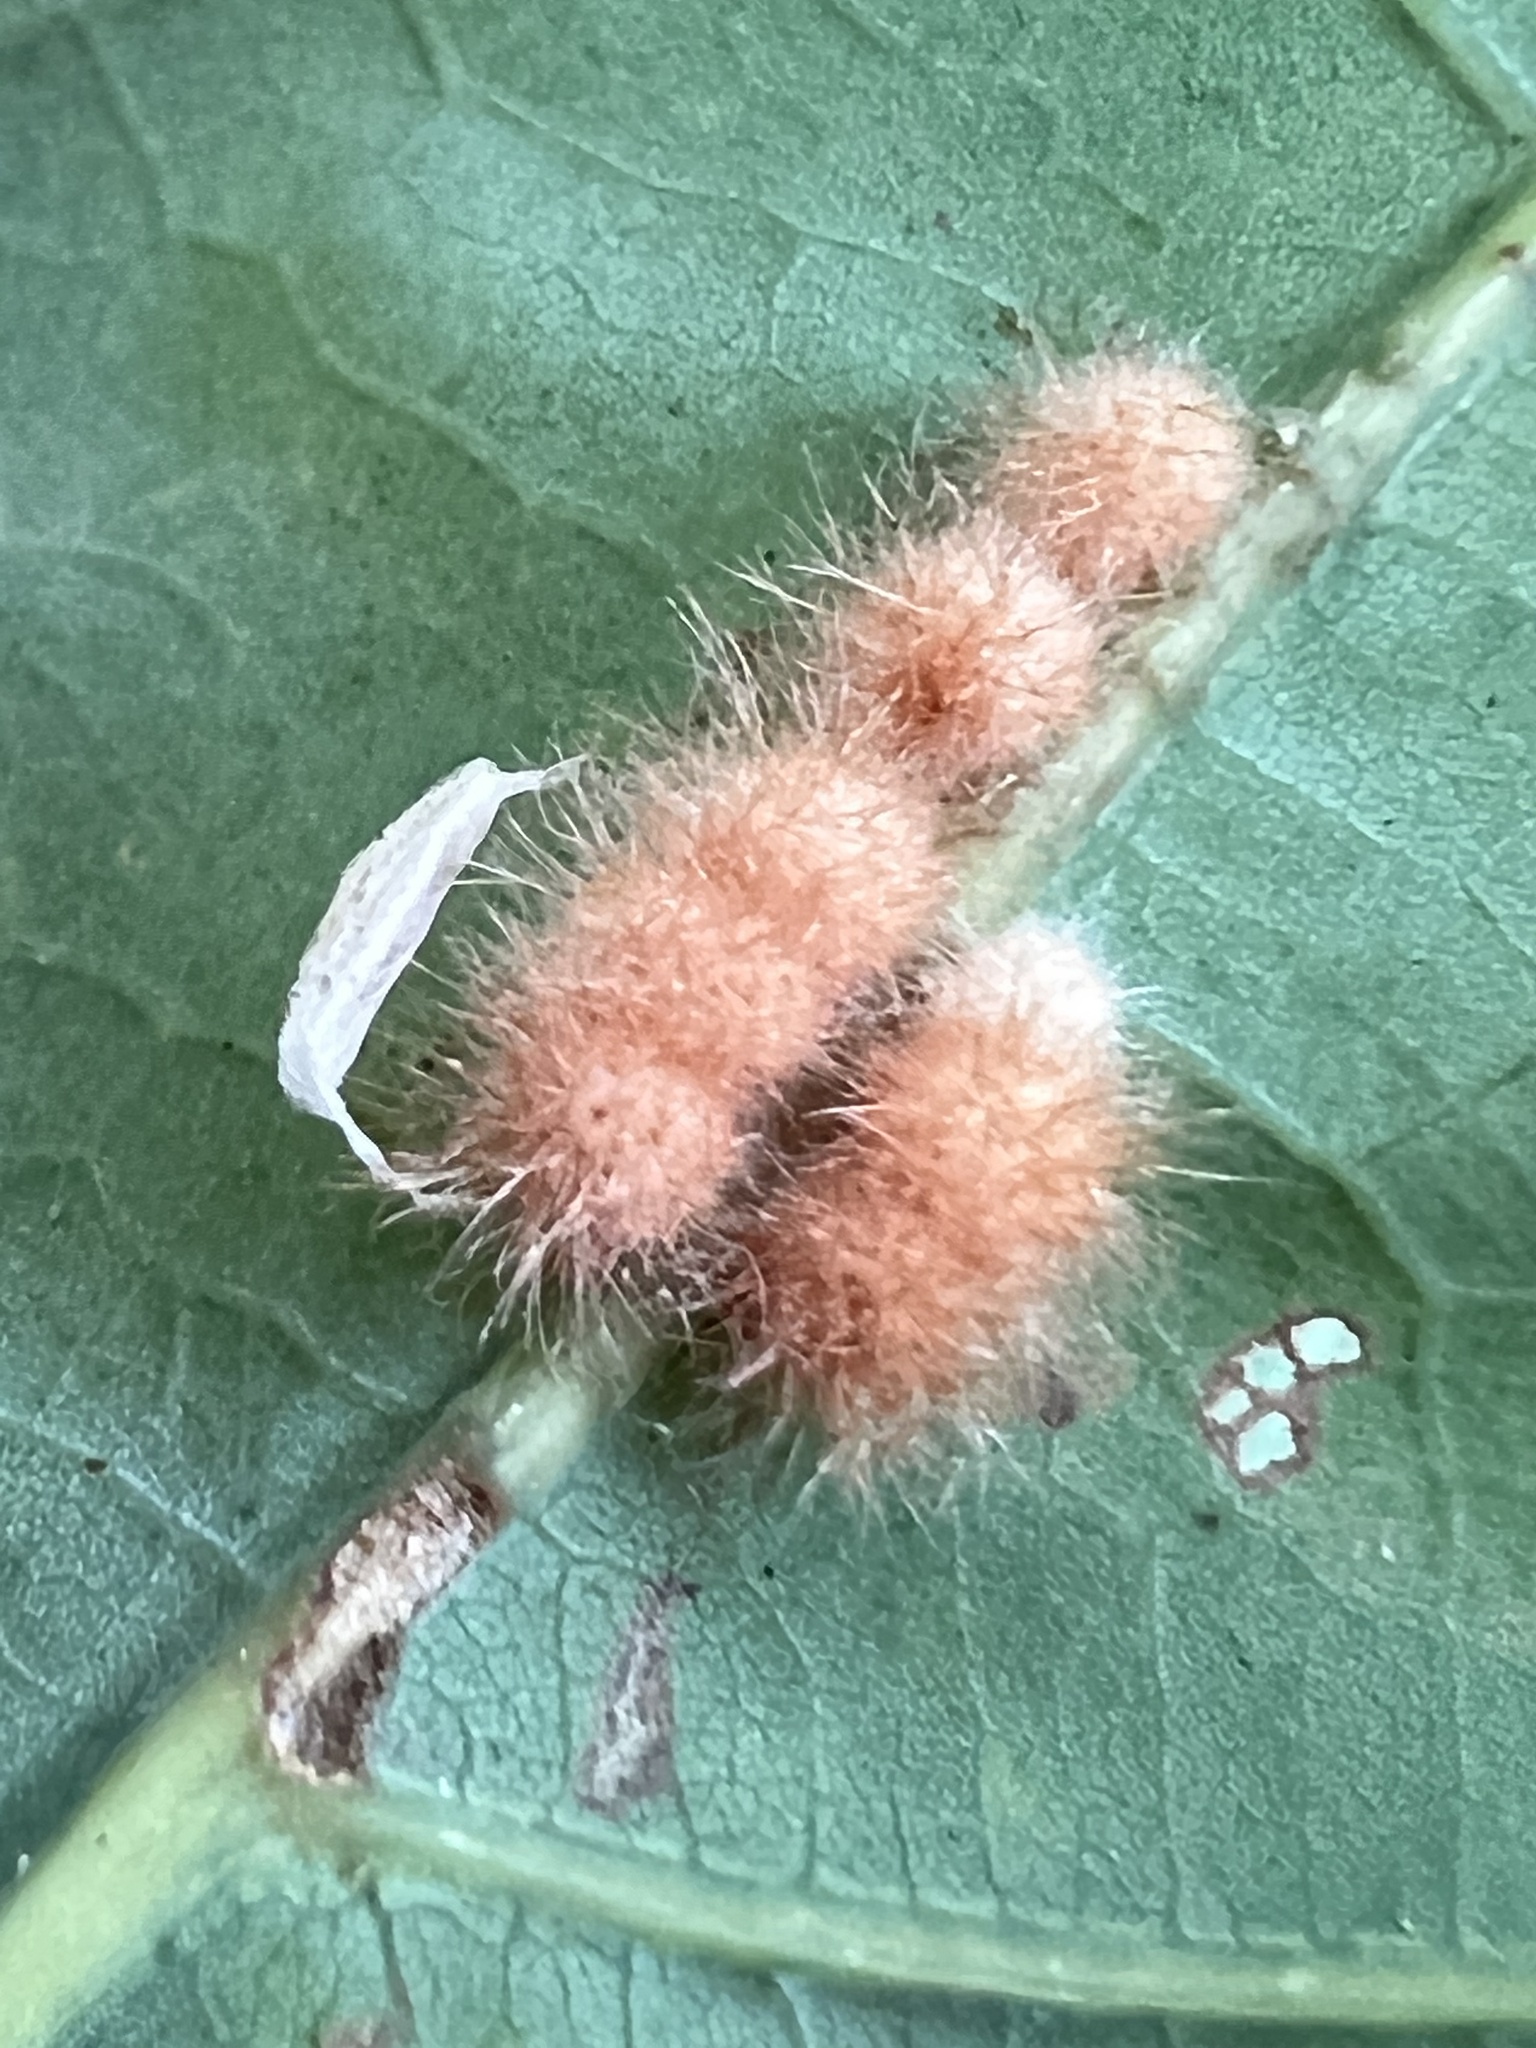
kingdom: Animalia
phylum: Arthropoda
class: Insecta
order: Hymenoptera
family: Cynipidae
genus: Andricus
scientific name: Andricus
